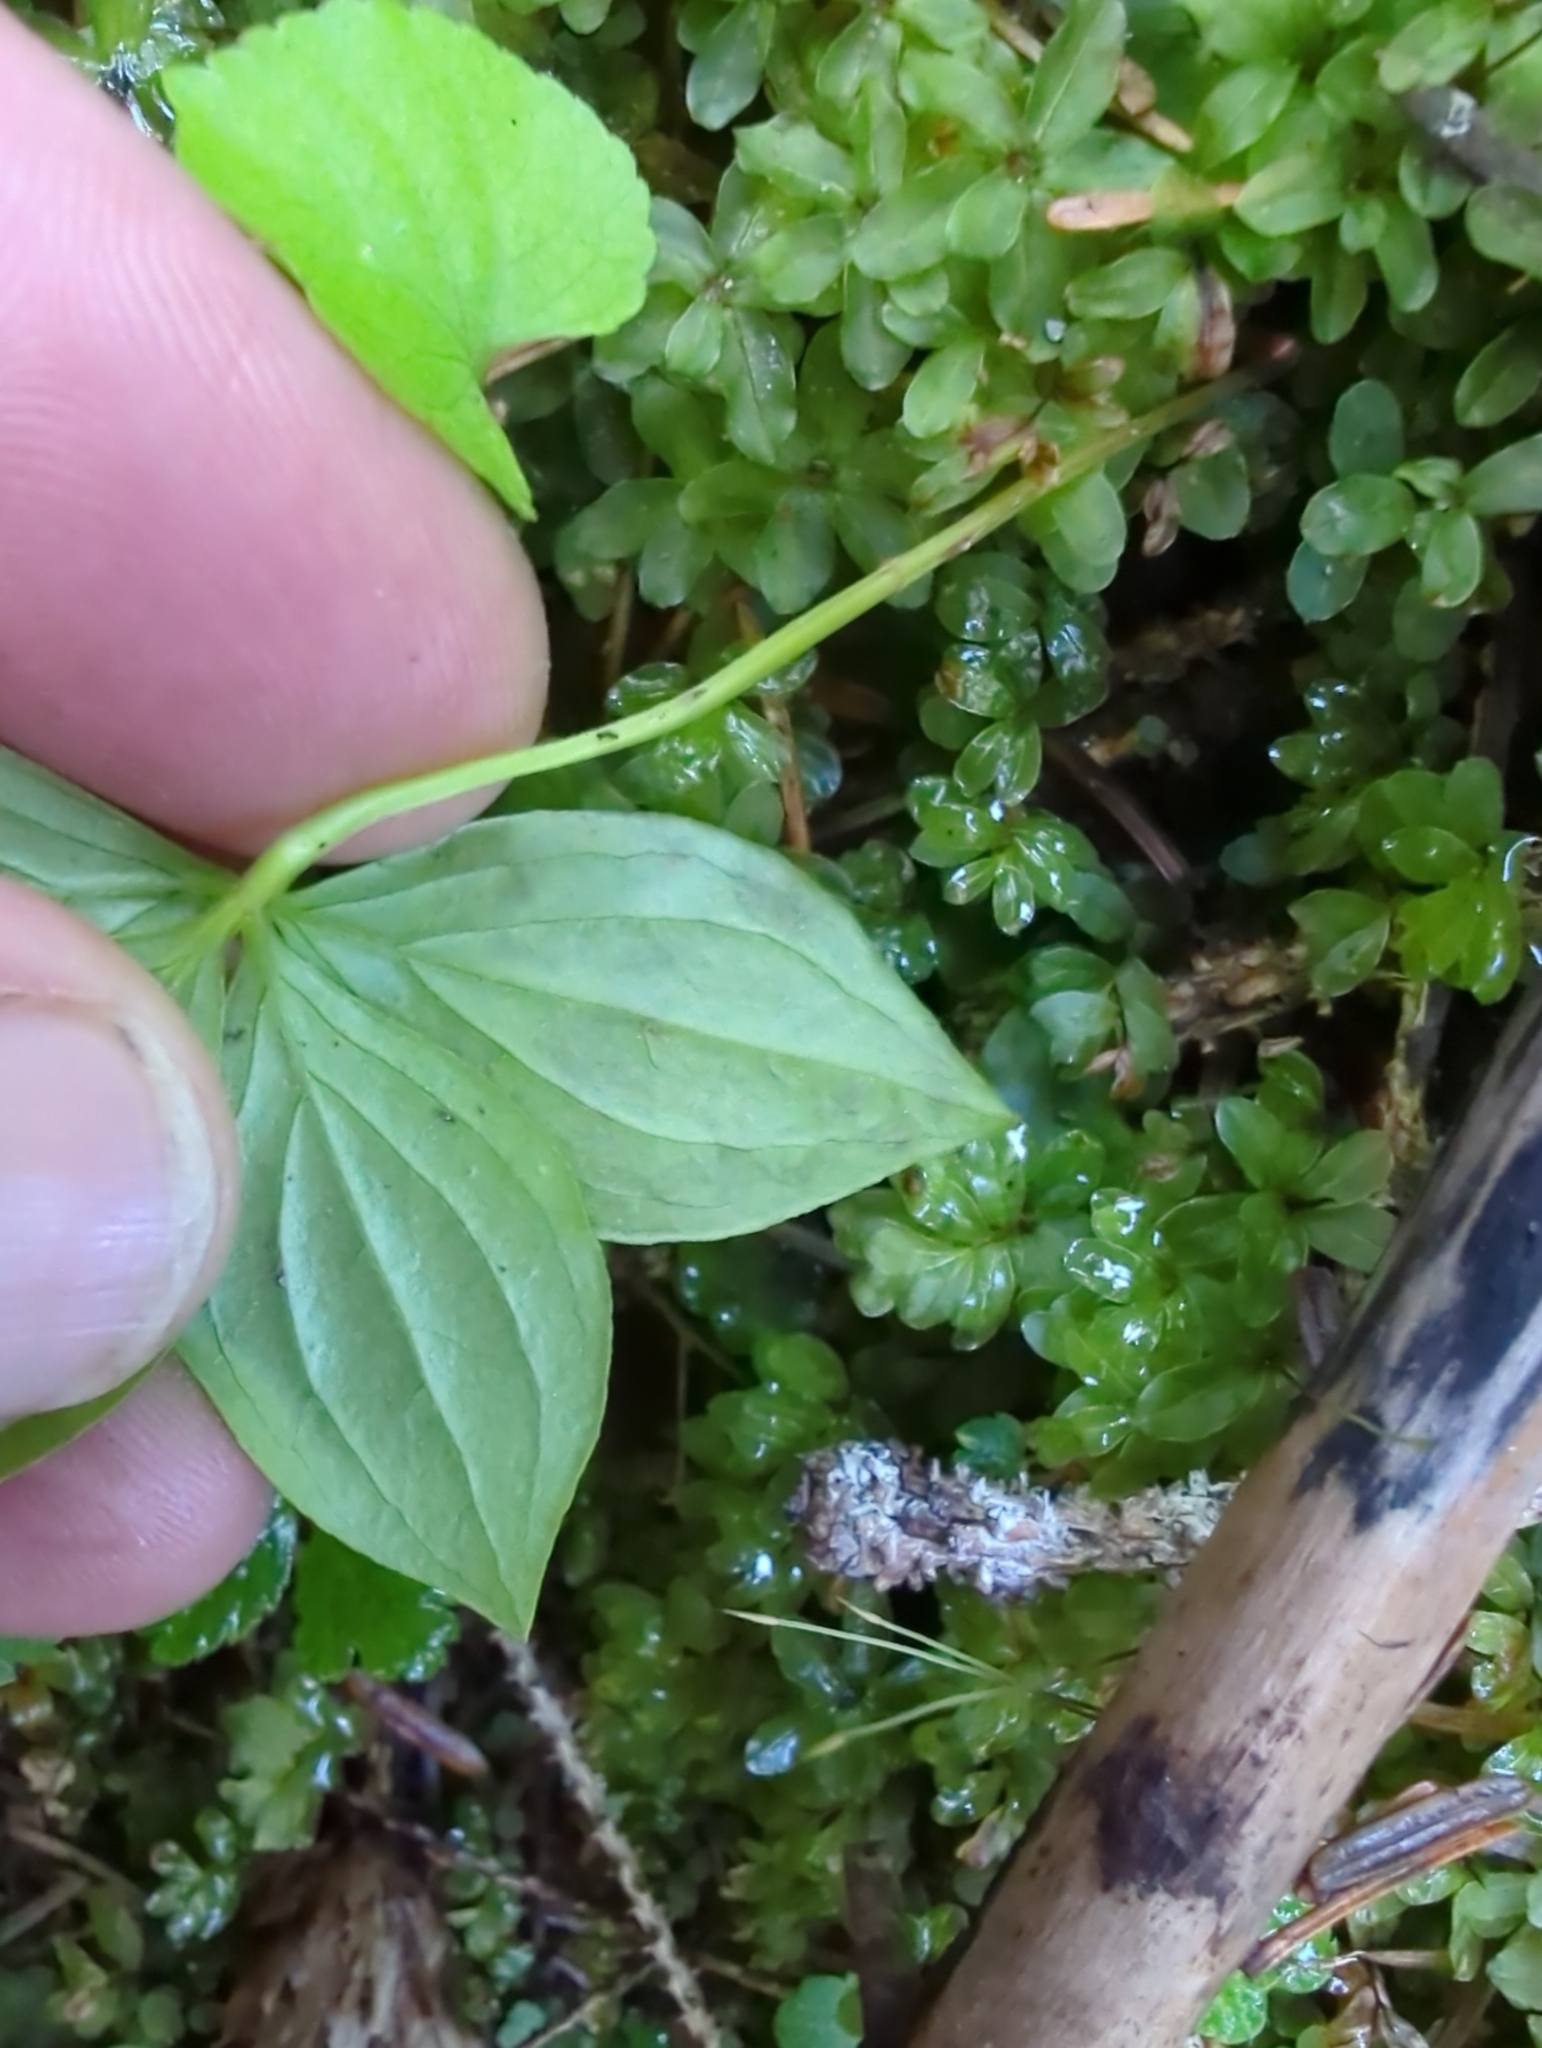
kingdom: Animalia
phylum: Arthropoda
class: Insecta
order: Diptera
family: Agromyzidae
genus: Phytomyza
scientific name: Phytomyza agromyzina
